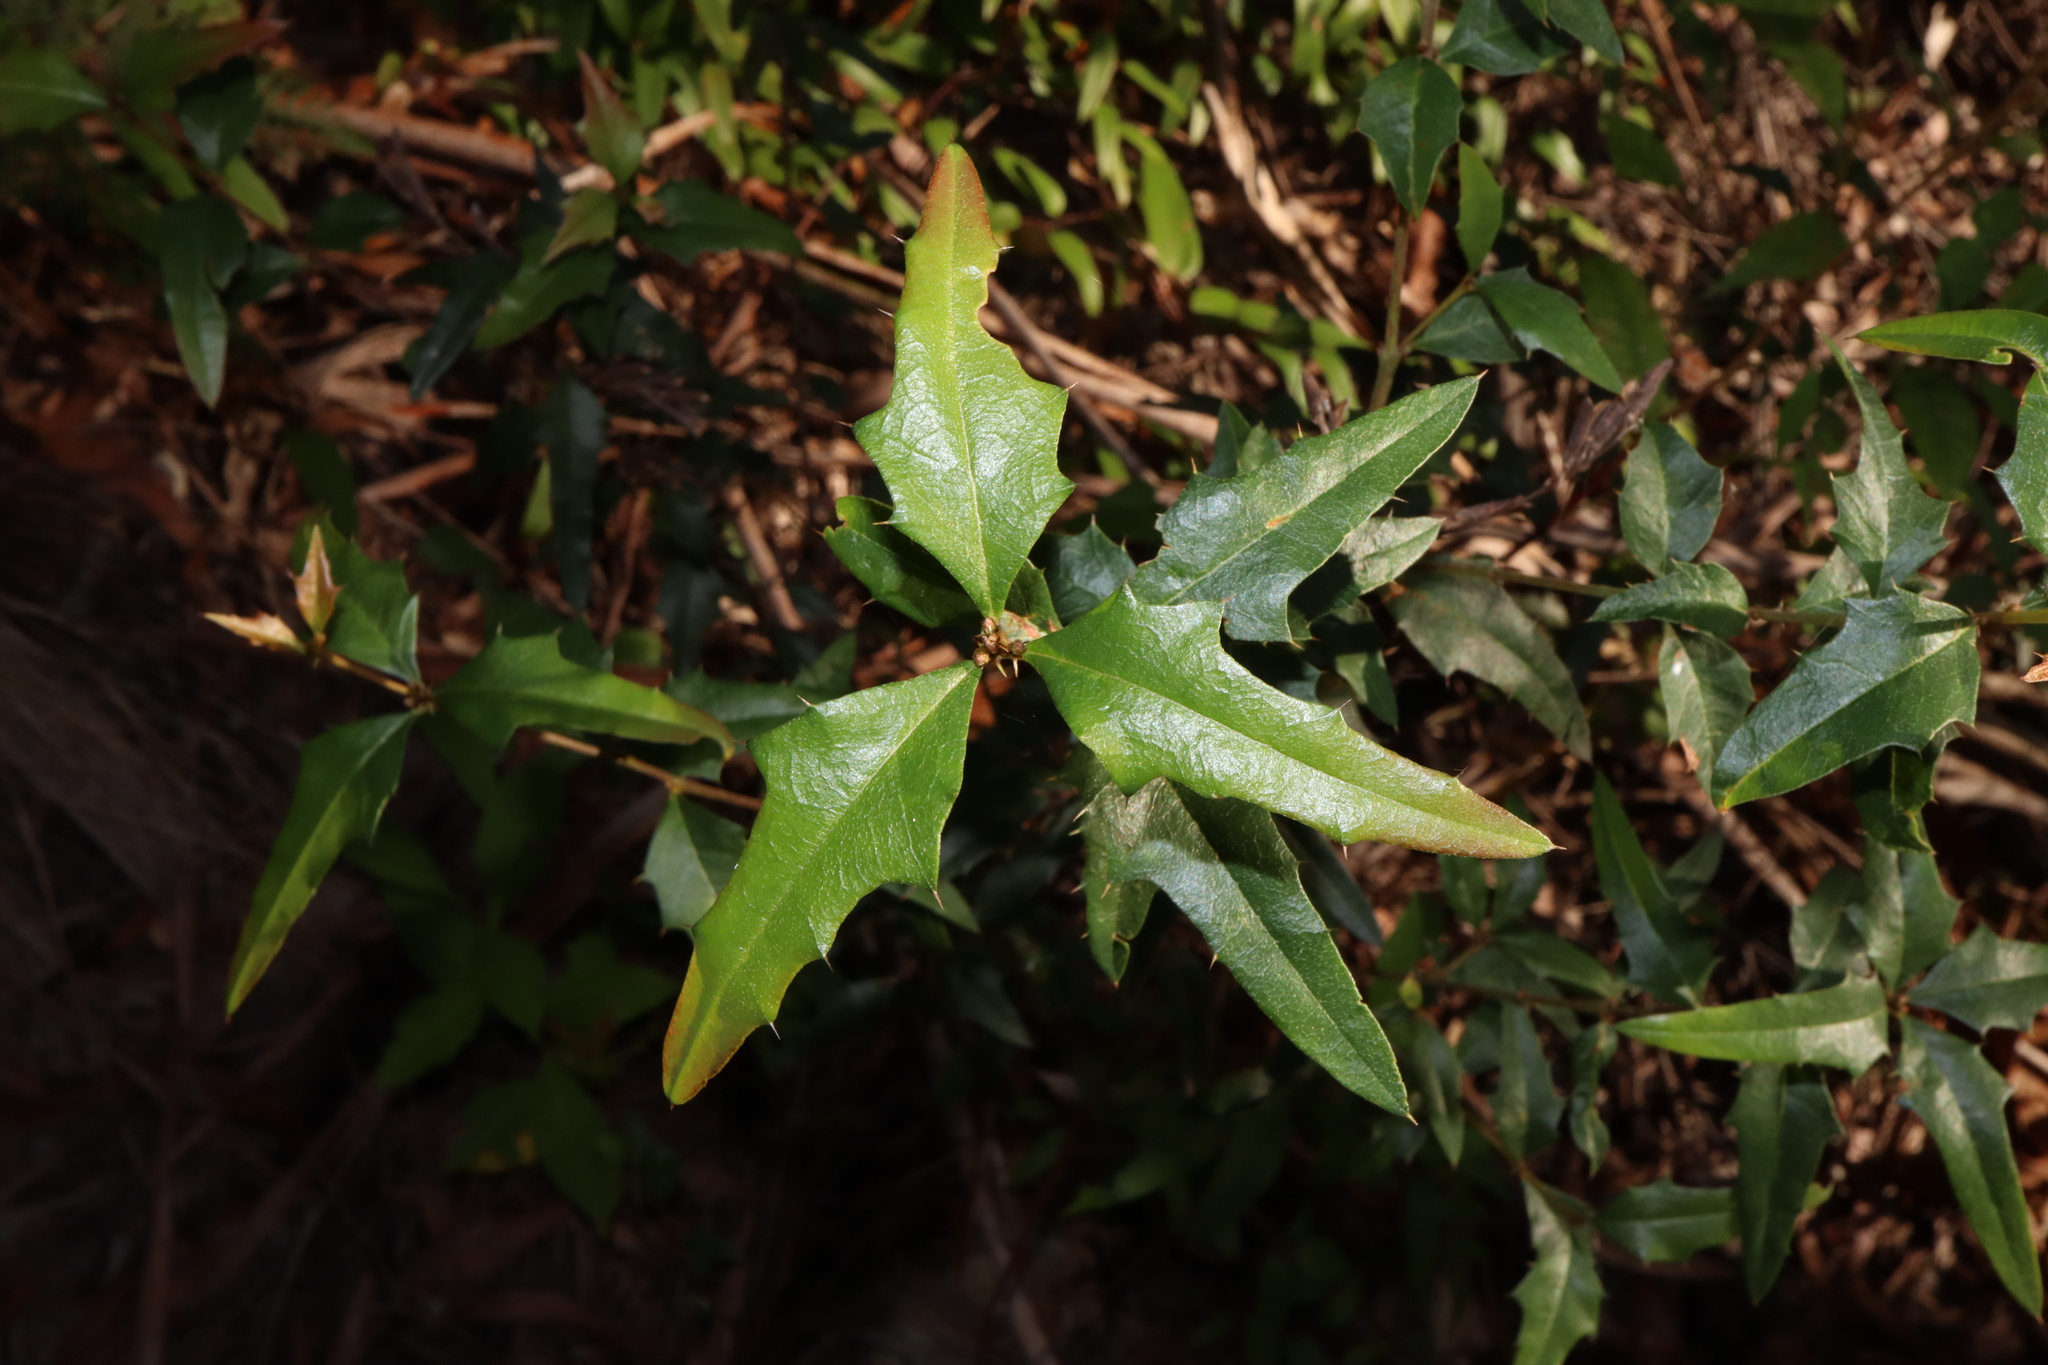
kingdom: Plantae
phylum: Tracheophyta
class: Magnoliopsida
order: Fabales
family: Fabaceae
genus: Podolobium
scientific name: Podolobium ilicifolium
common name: Native holly
